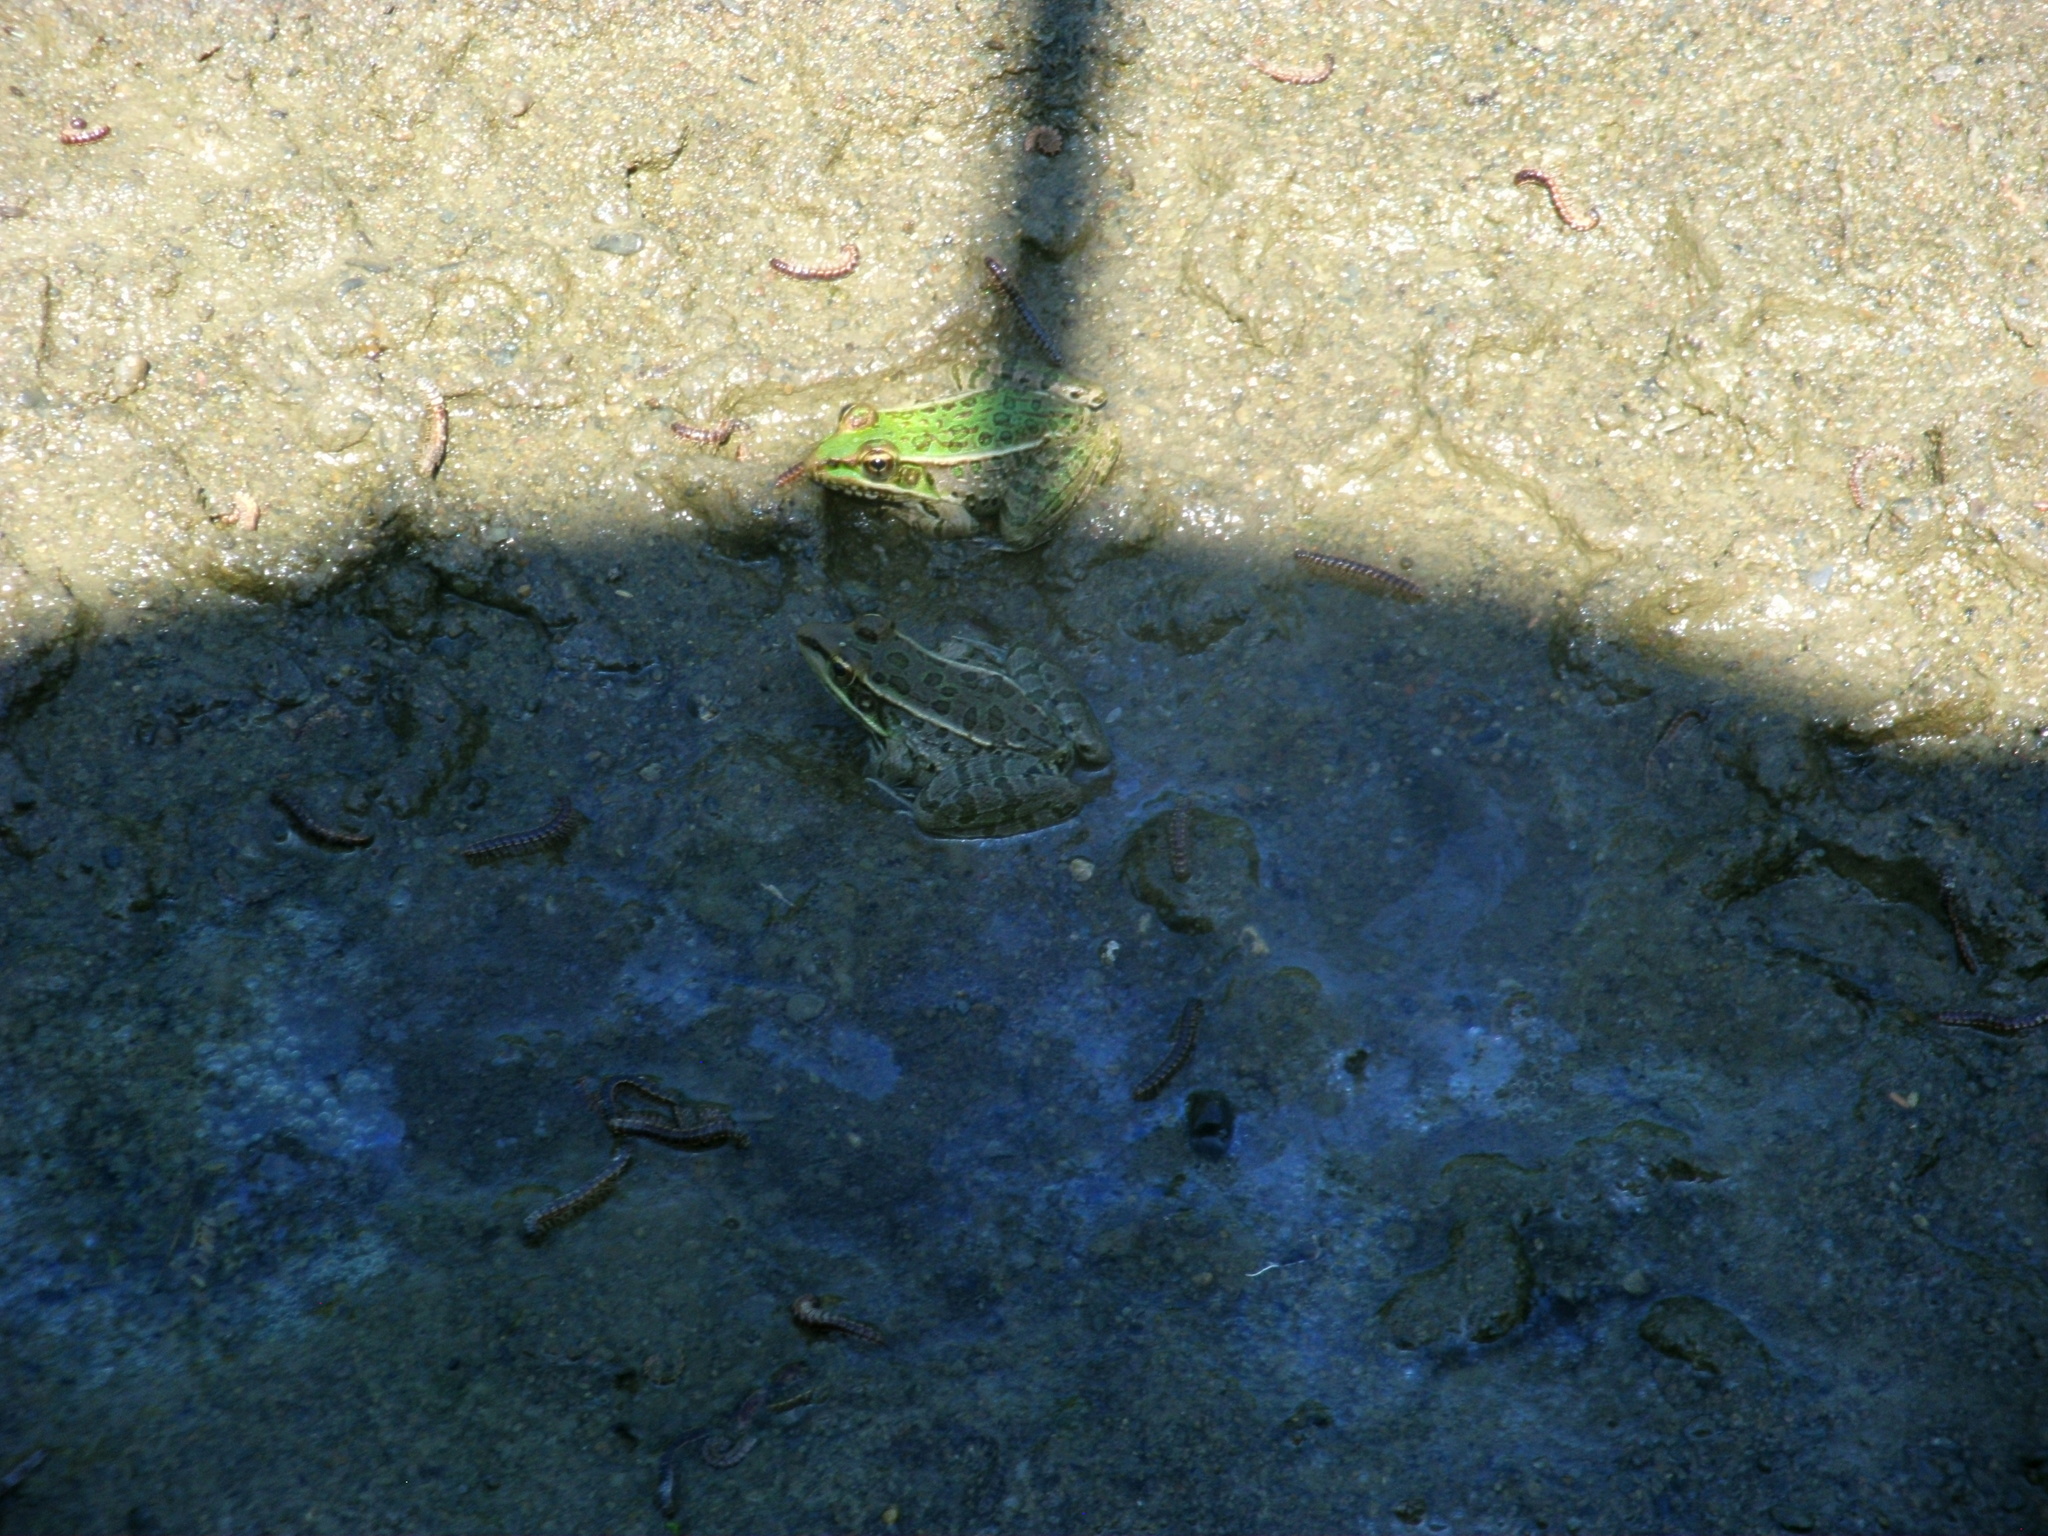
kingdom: Animalia
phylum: Chordata
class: Amphibia
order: Anura
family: Ranidae
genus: Lithobates
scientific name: Lithobates berlandieri
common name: Rio grande leopard frog
